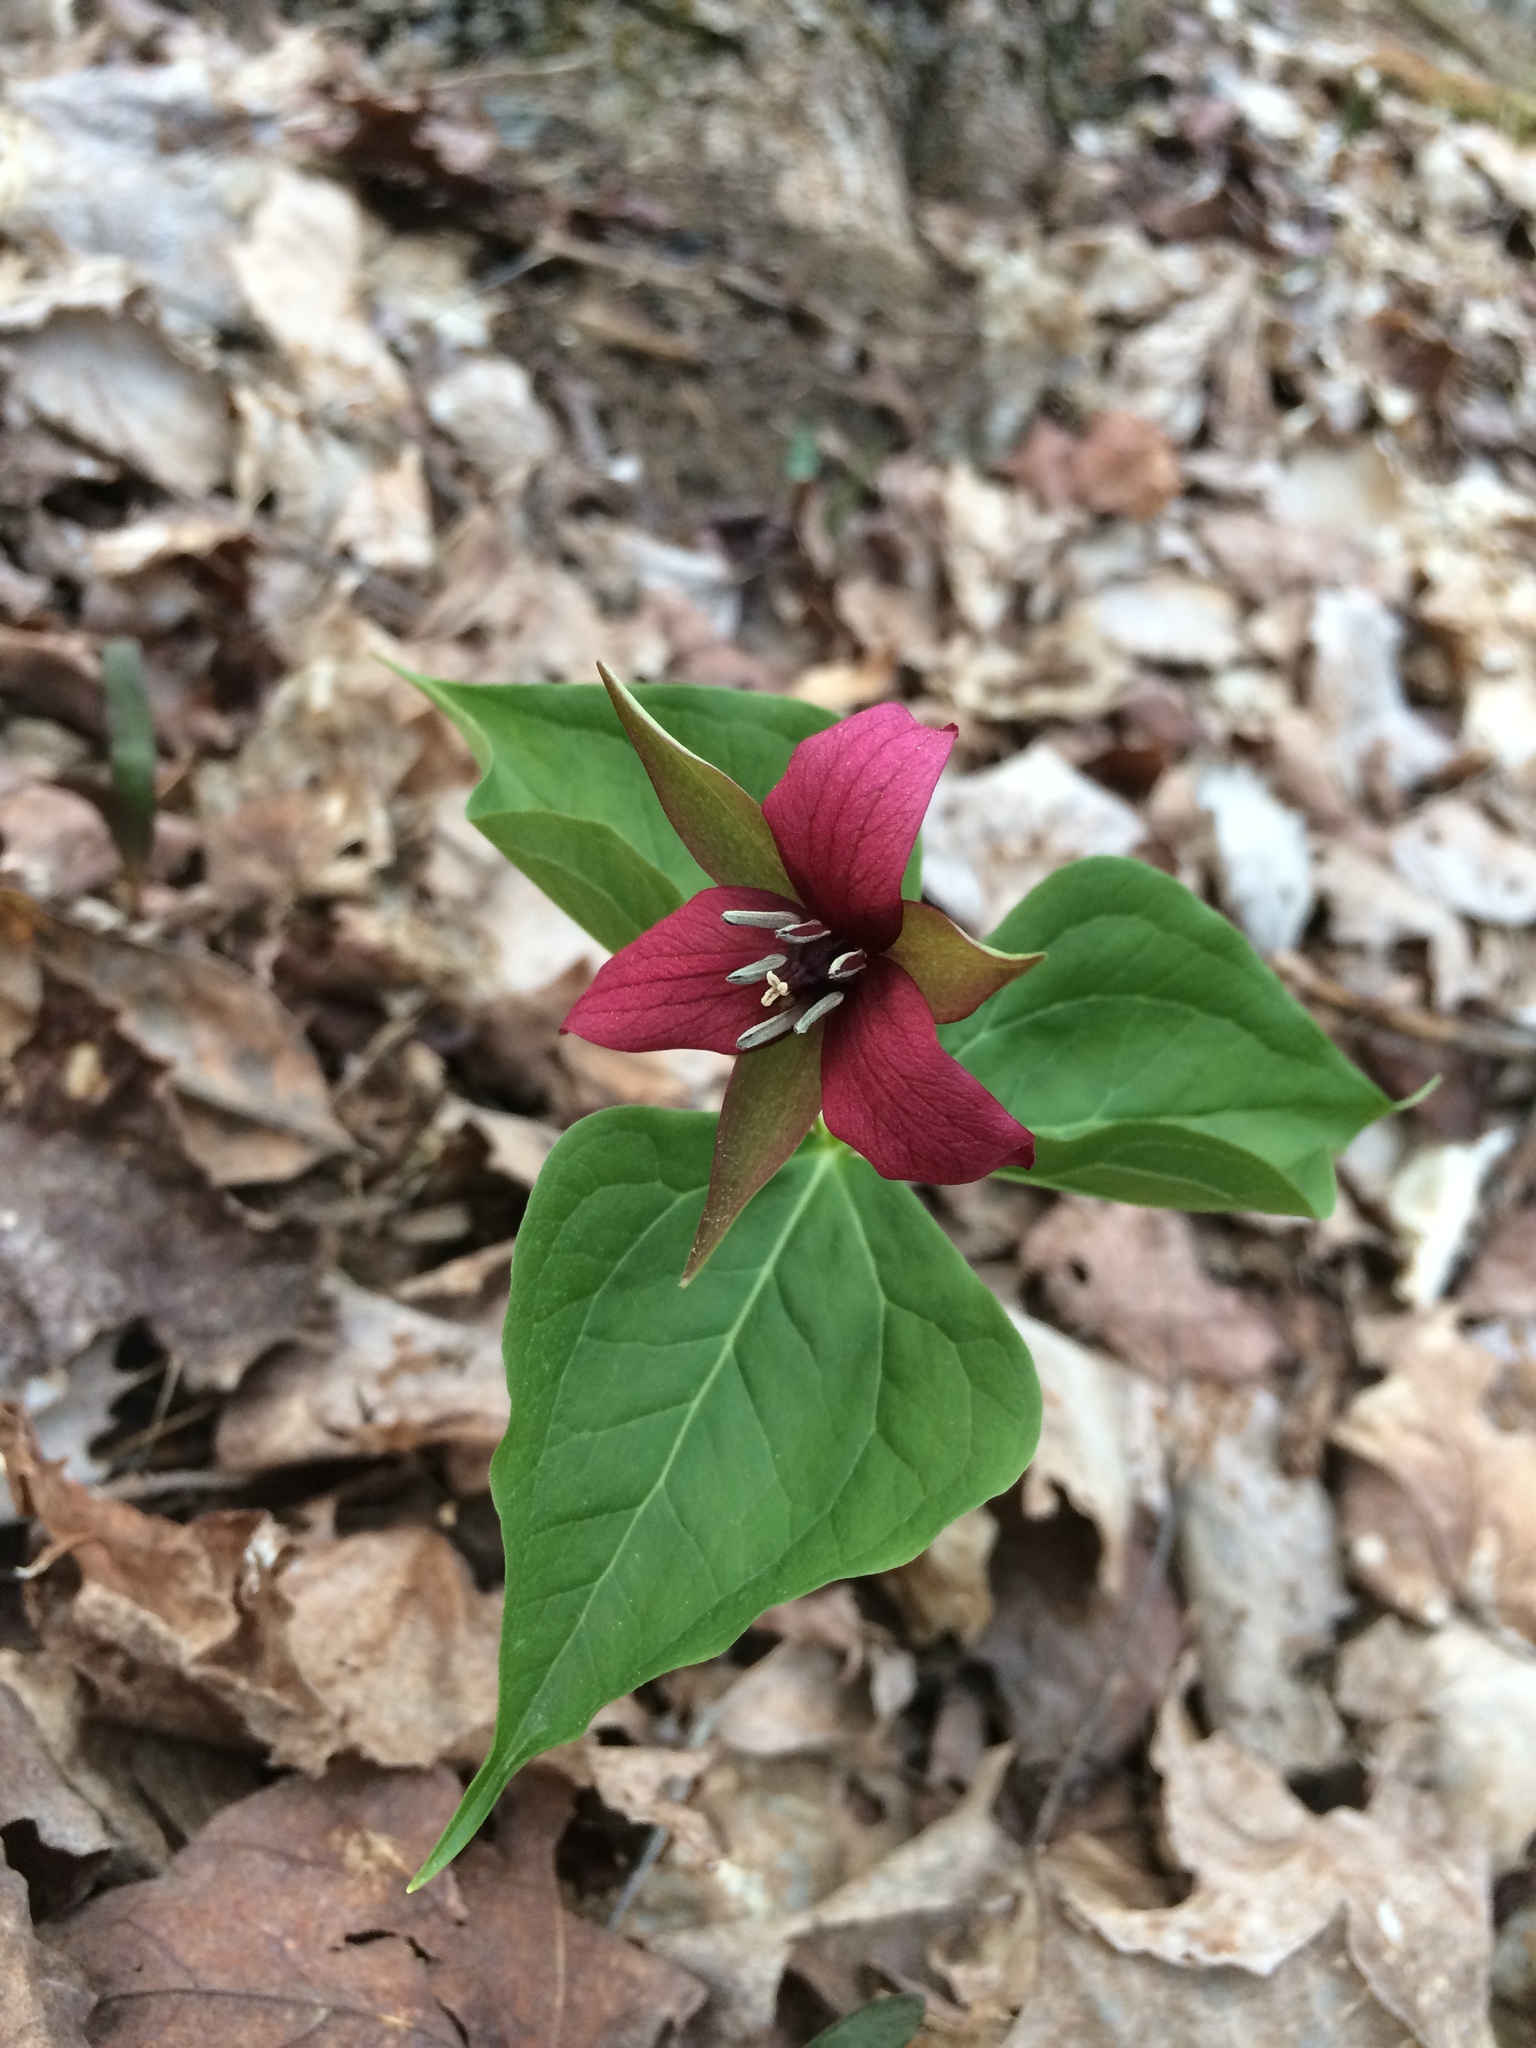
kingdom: Plantae
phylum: Tracheophyta
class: Liliopsida
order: Liliales
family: Melanthiaceae
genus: Trillium
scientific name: Trillium erectum
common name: Purple trillium
